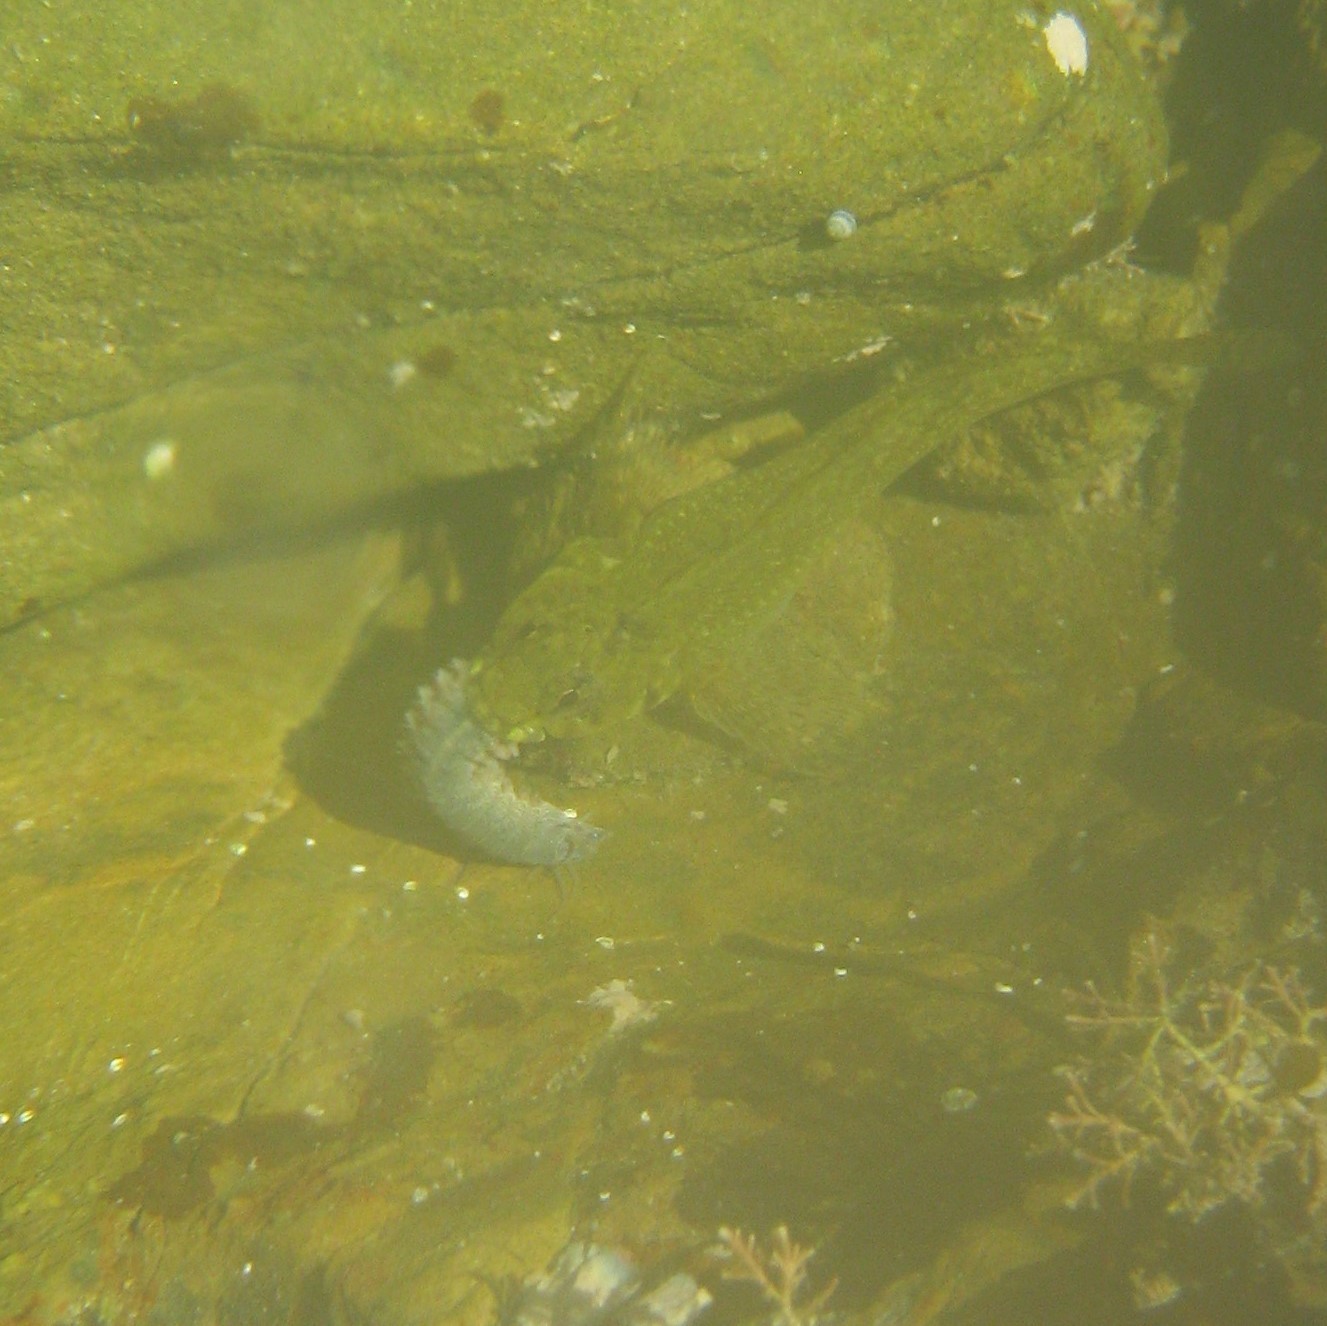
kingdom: Animalia
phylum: Chordata
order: Perciformes
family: Tripterygiidae
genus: Bellapiscis
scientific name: Bellapiscis medius
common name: Twister
